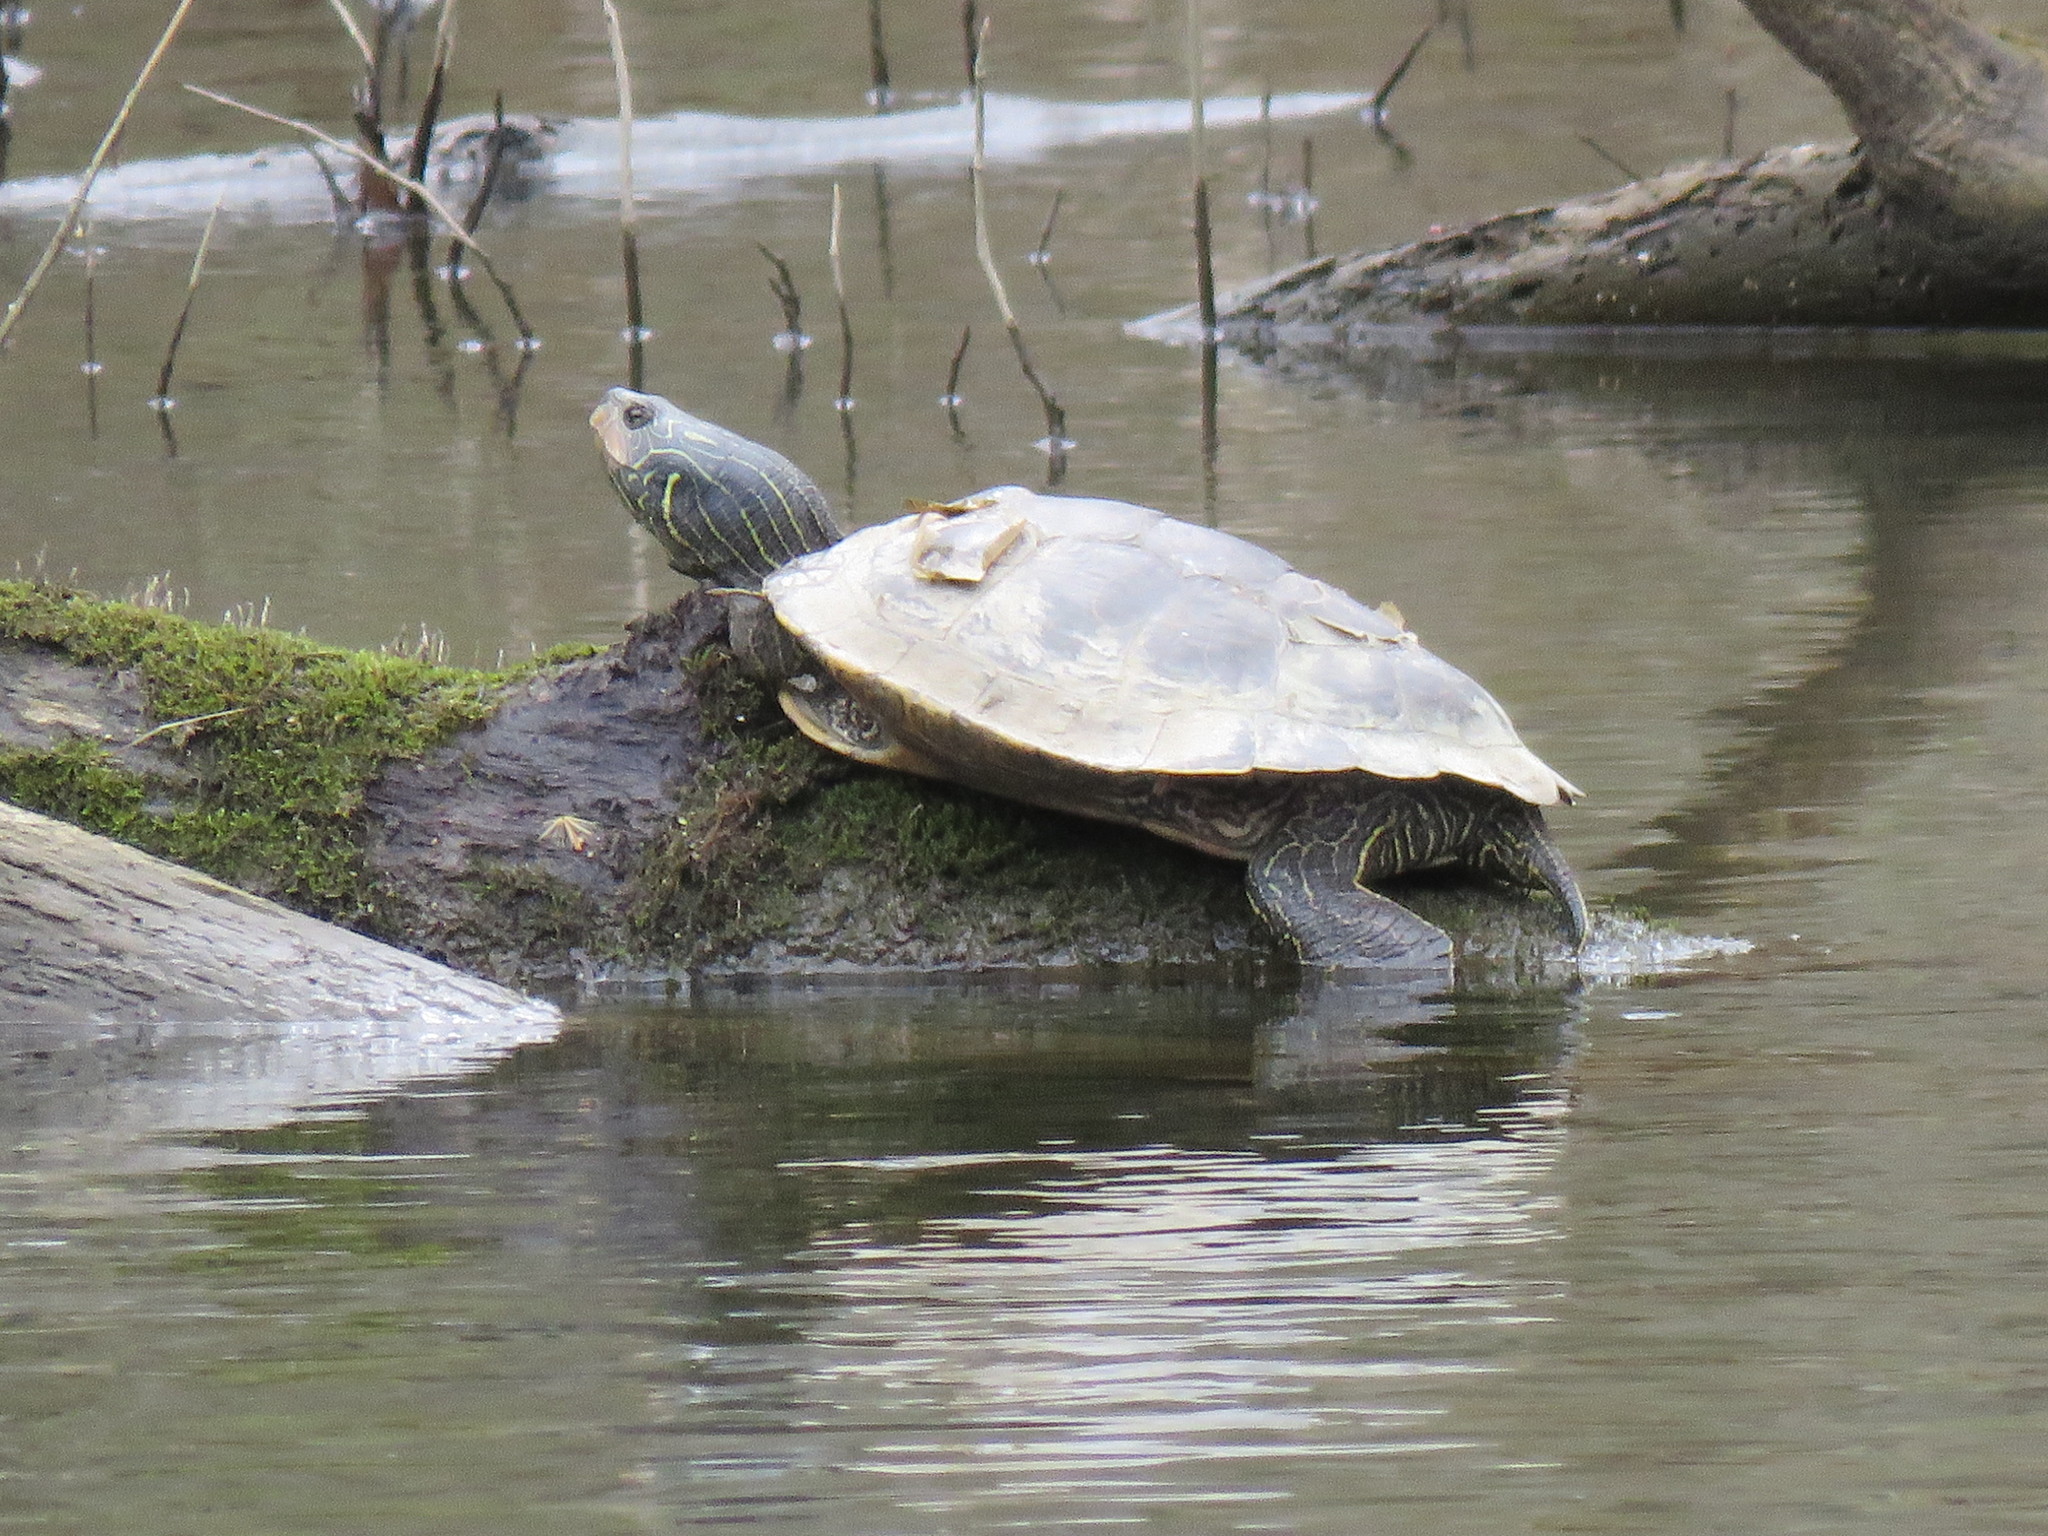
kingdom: Animalia
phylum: Chordata
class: Testudines
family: Emydidae
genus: Graptemys
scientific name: Graptemys geographica
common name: Common map turtle
